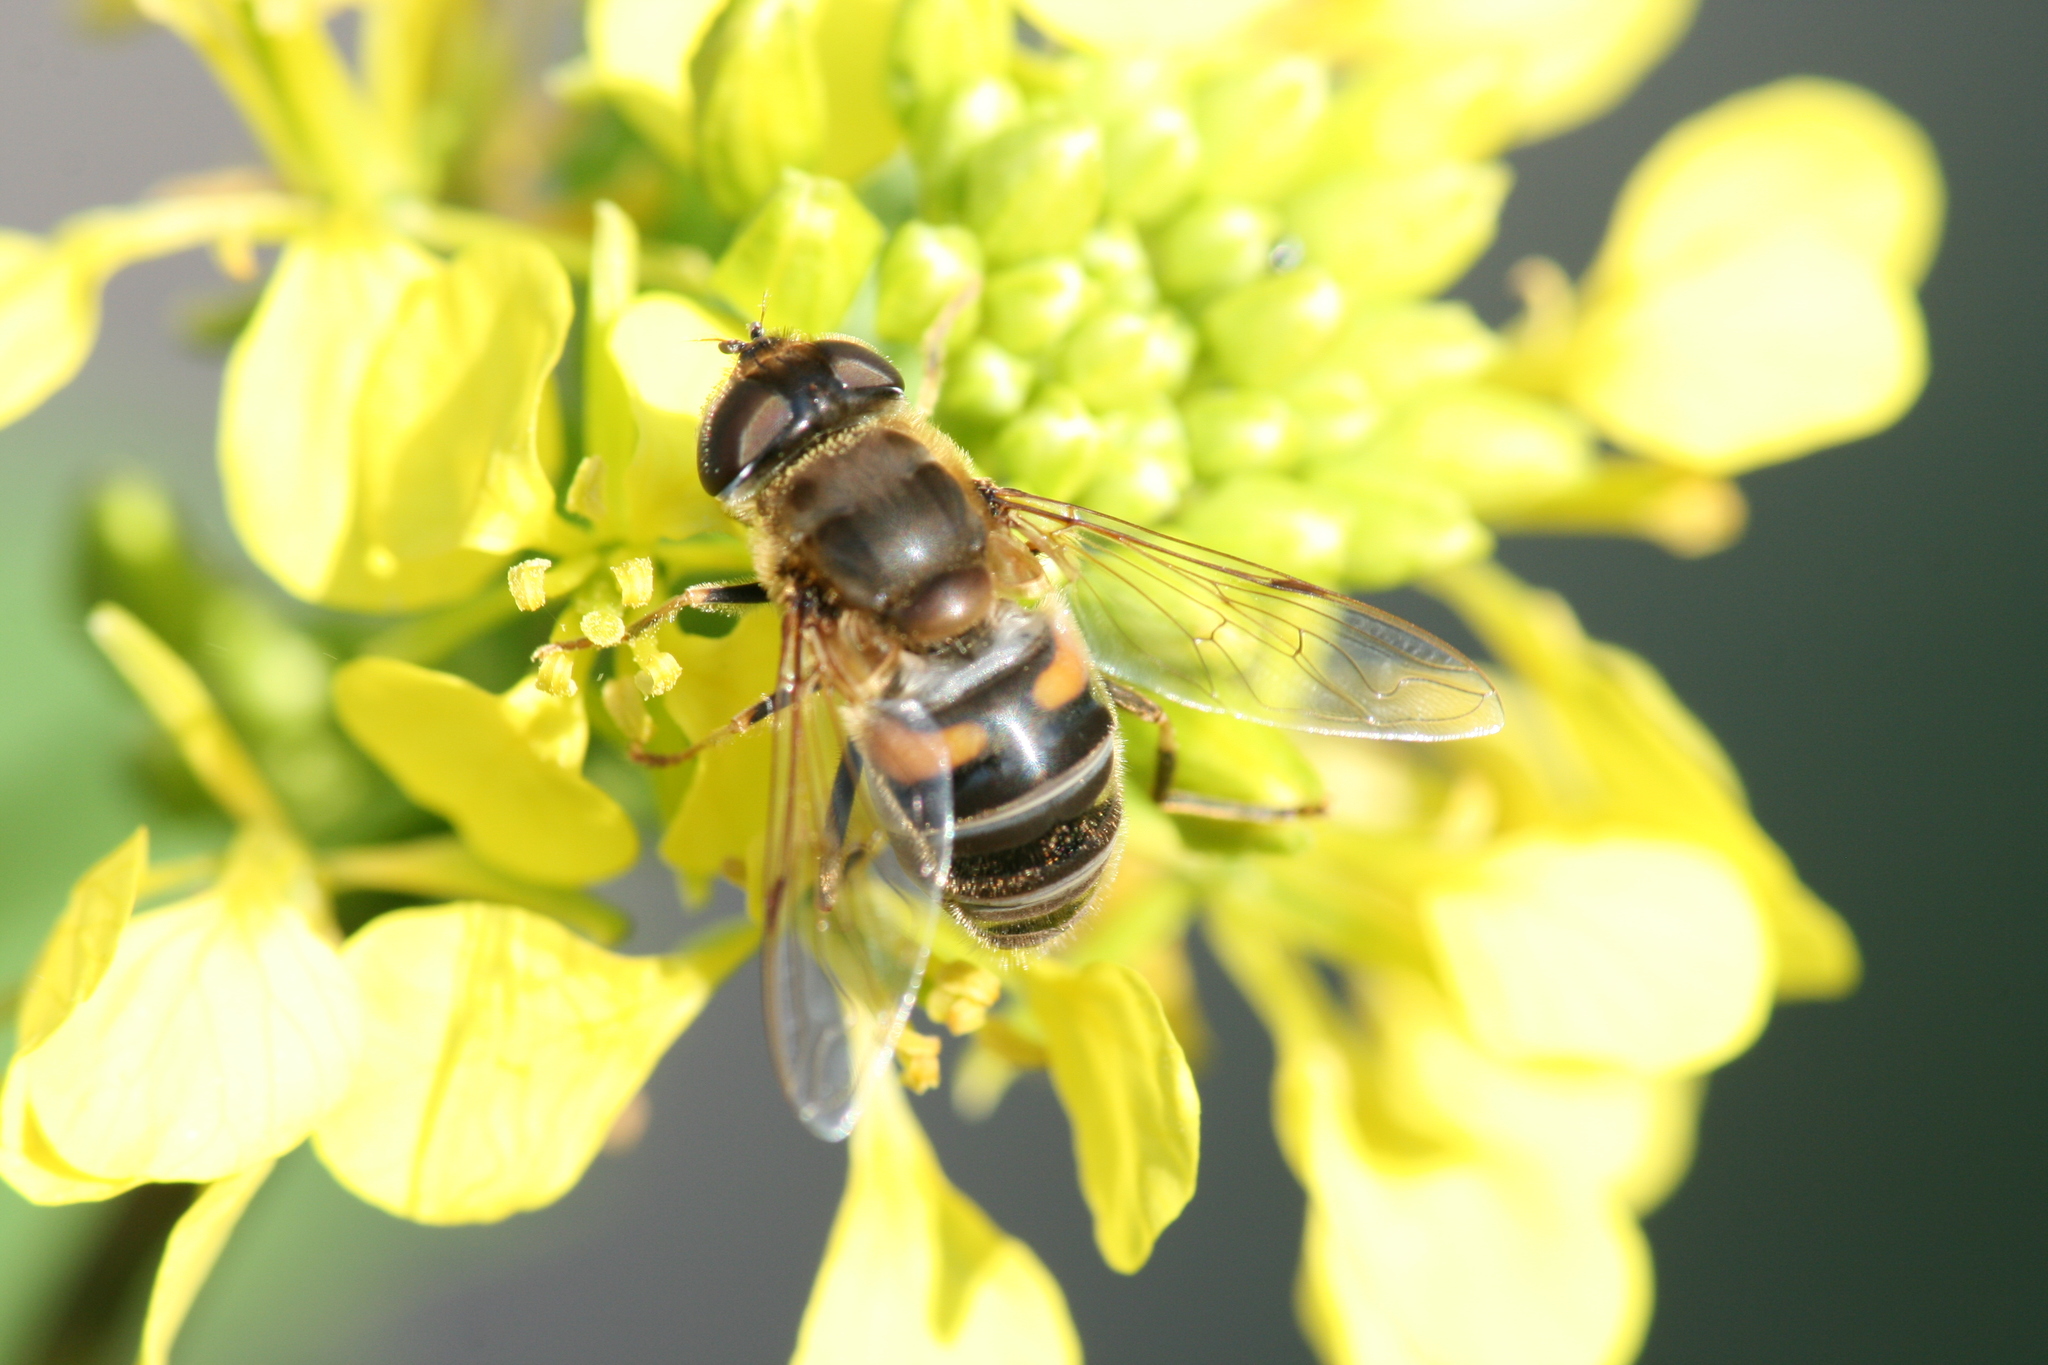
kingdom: Animalia
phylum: Arthropoda
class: Insecta
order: Diptera
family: Syrphidae
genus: Eristalis
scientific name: Eristalis pertinax
